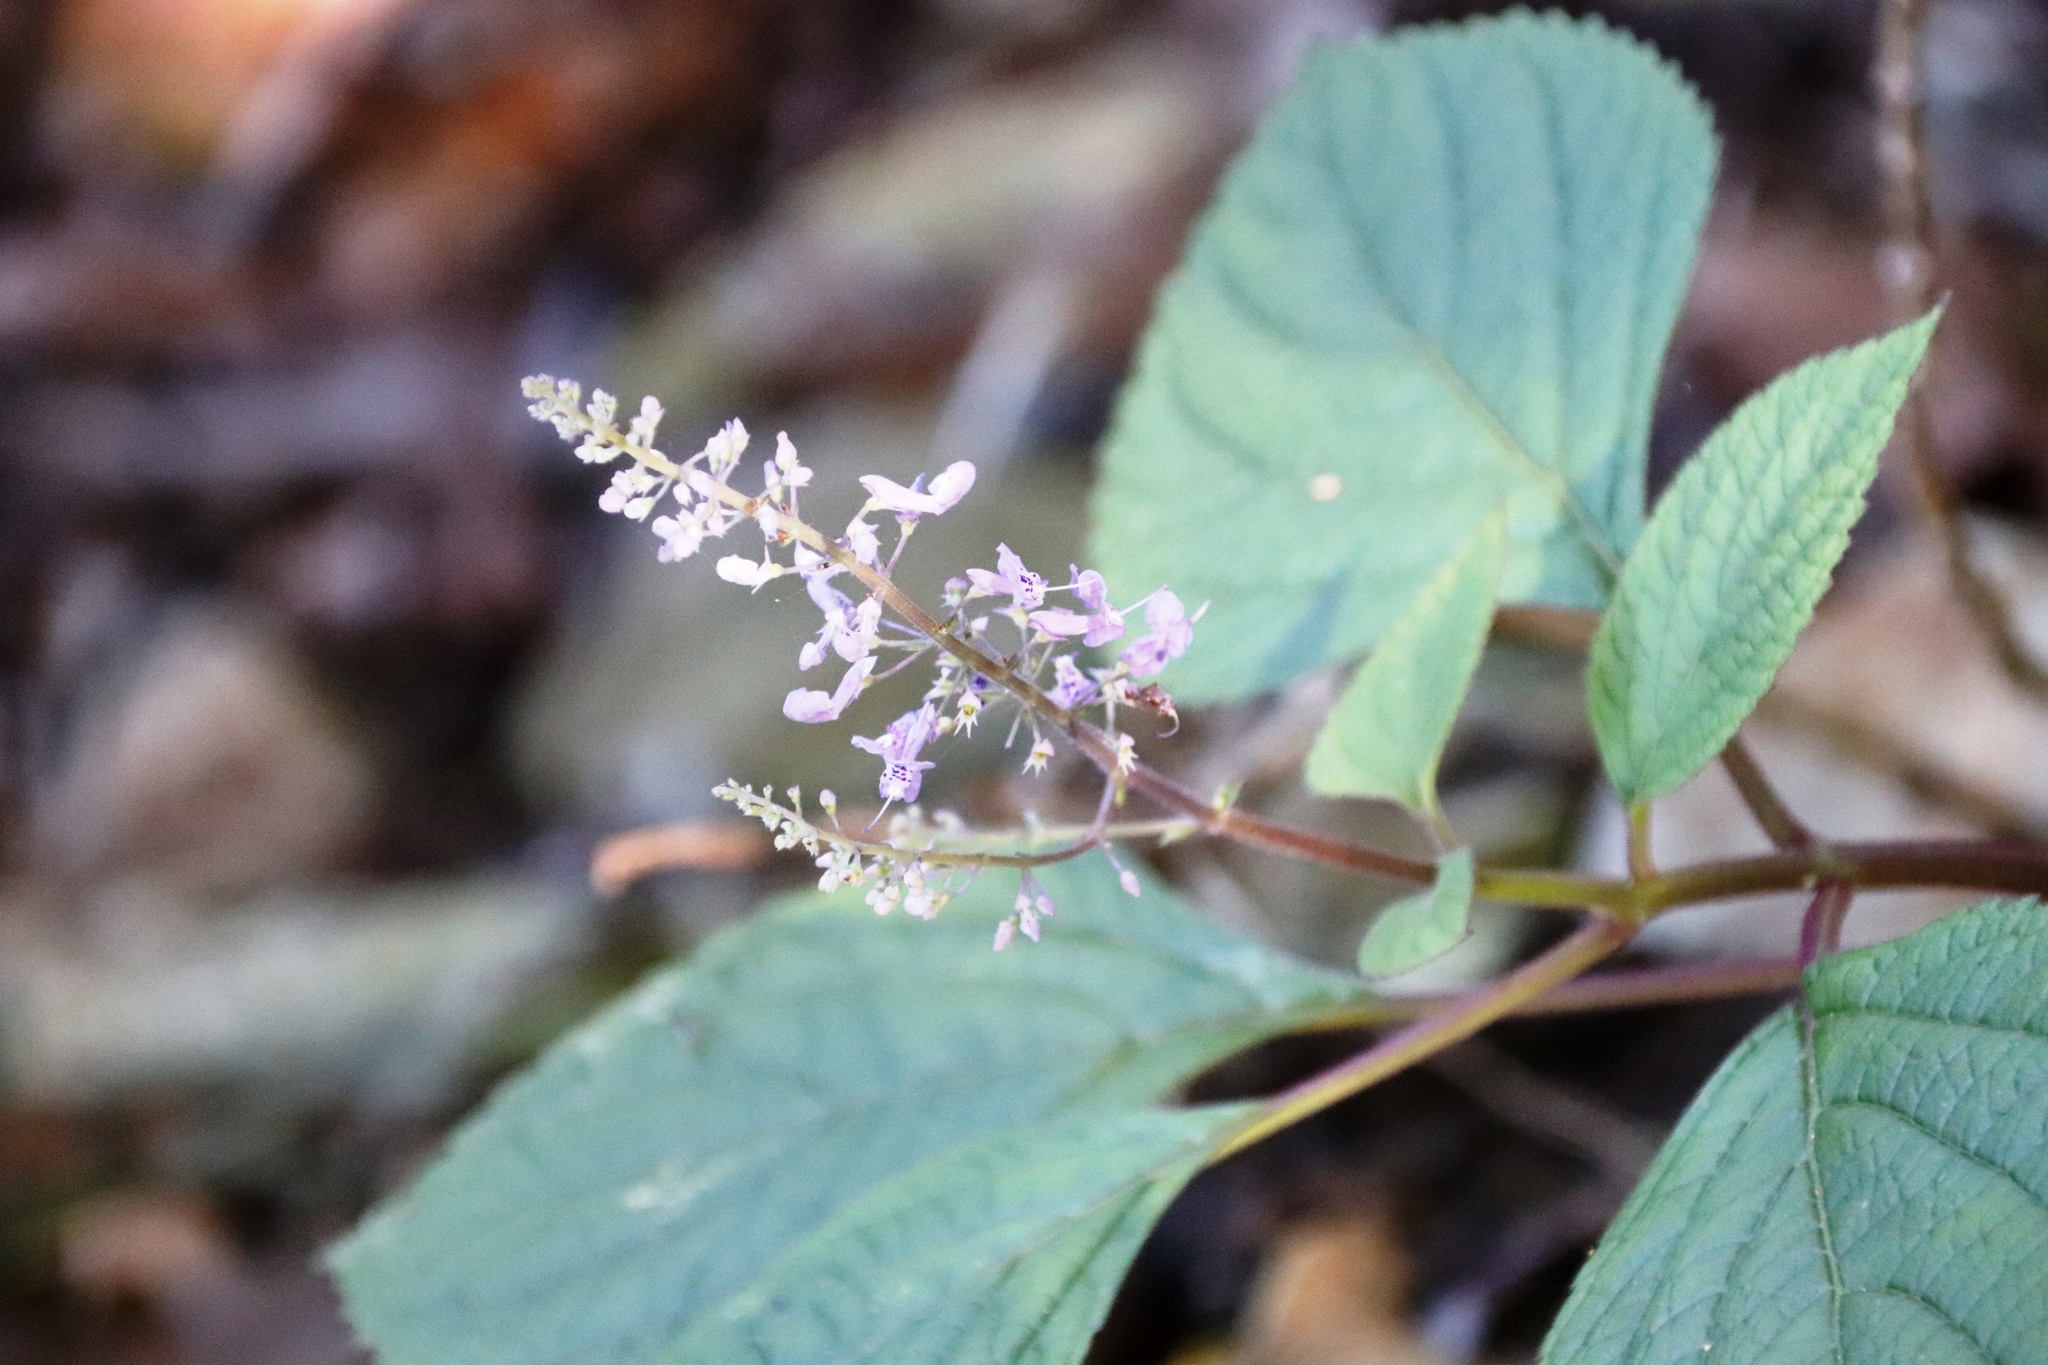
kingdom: Plantae
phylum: Tracheophyta
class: Magnoliopsida
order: Lamiales
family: Lamiaceae
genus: Plectranthus
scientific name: Plectranthus fruticosus
